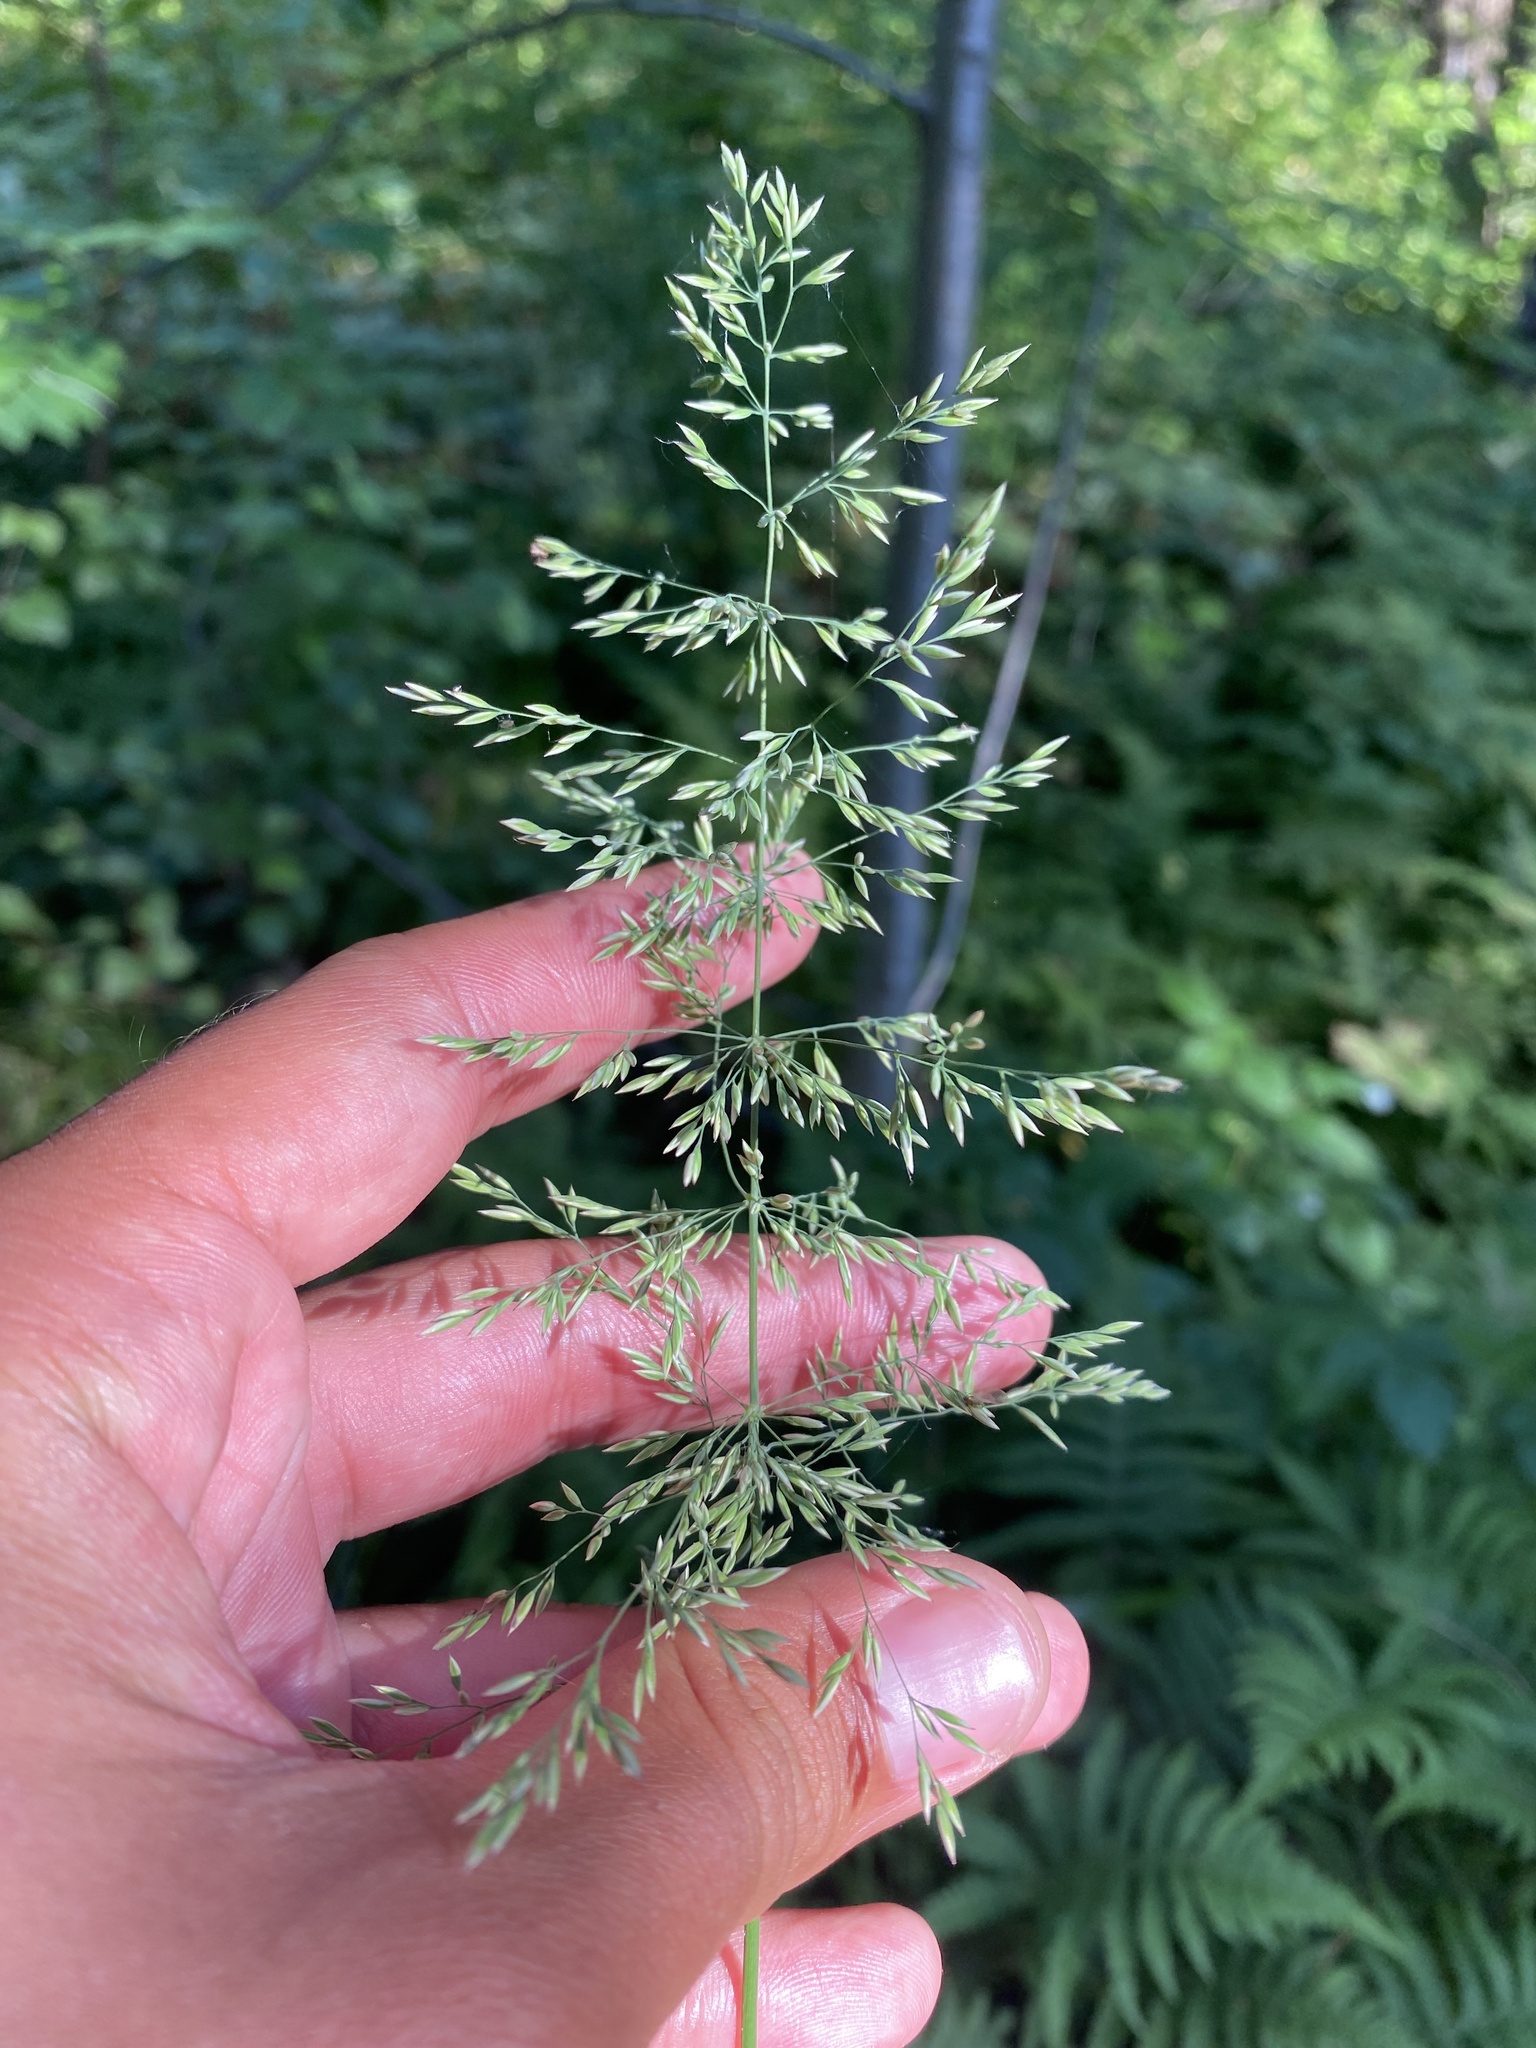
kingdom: Plantae
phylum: Tracheophyta
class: Liliopsida
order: Poales
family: Poaceae
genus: Calamagrostis
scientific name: Calamagrostis obtusata
